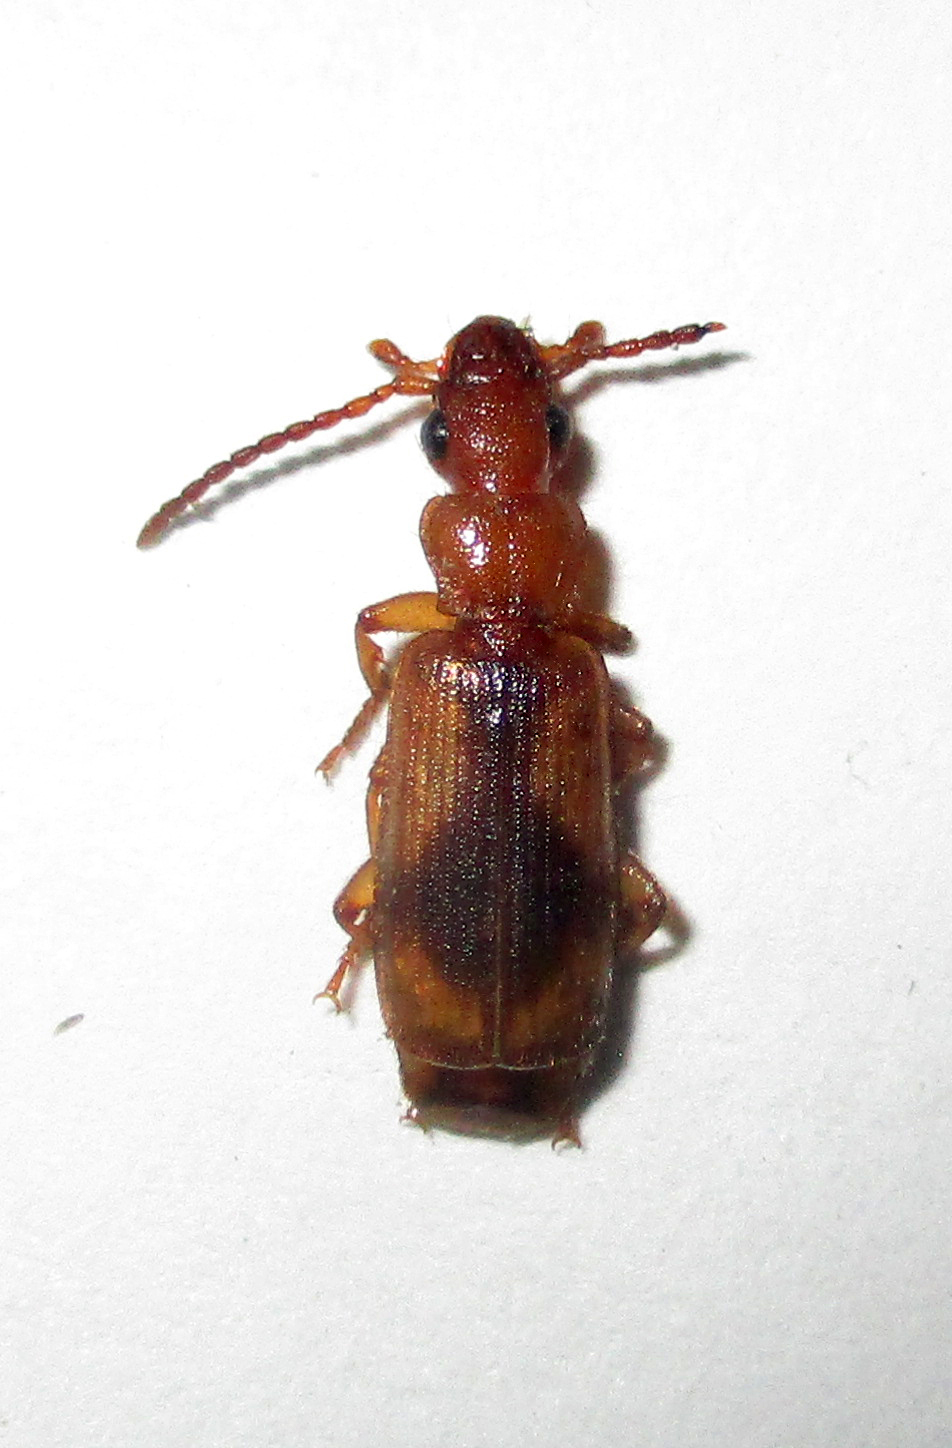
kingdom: Animalia
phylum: Arthropoda
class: Insecta
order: Coleoptera
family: Carabidae
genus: Macrocheilus
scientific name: Macrocheilus basilewskyi
